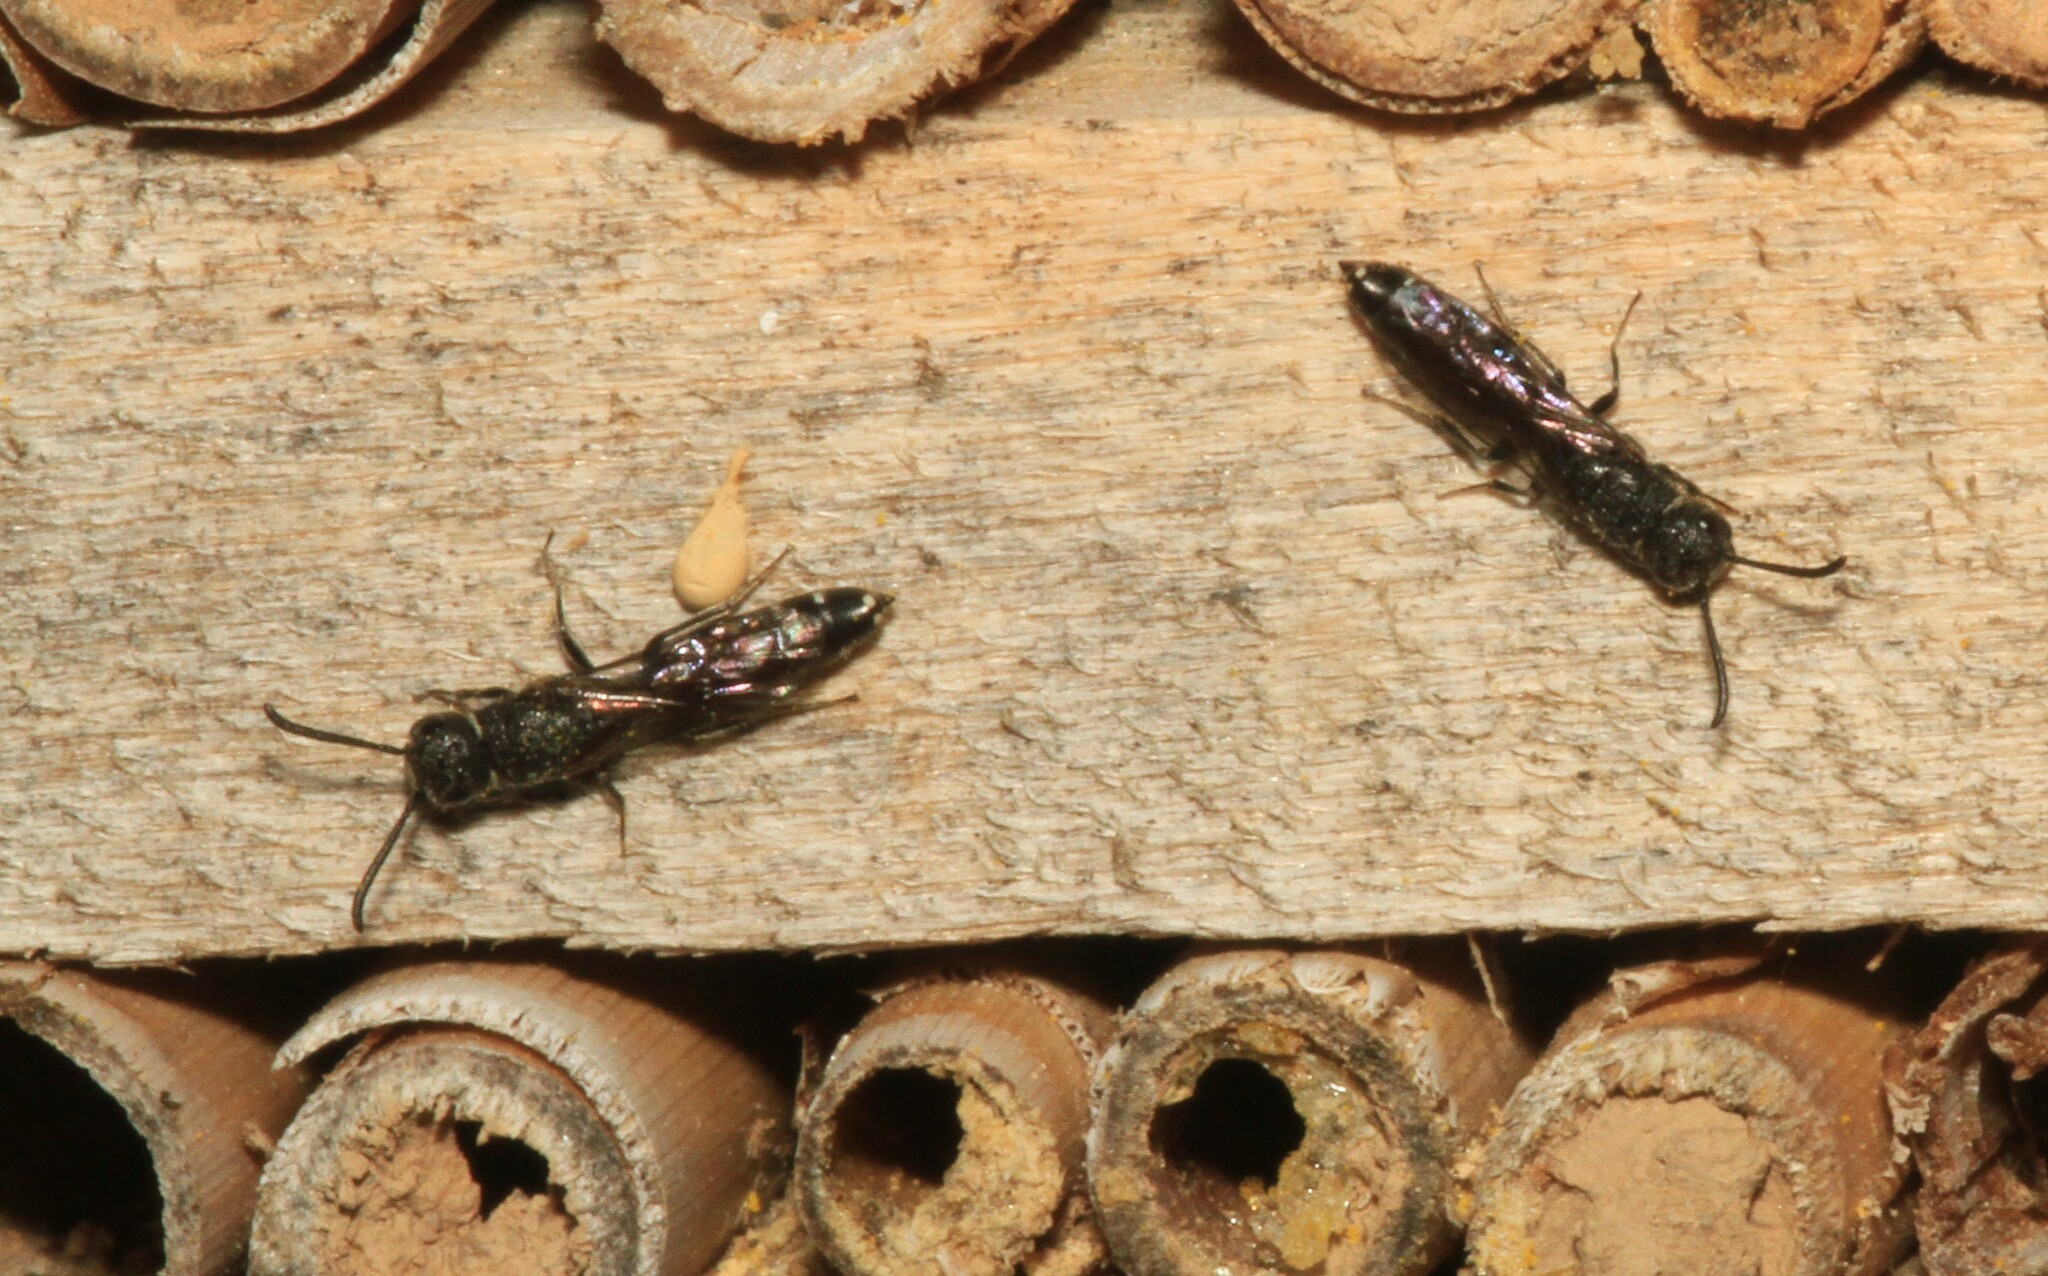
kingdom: Animalia
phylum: Arthropoda
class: Insecta
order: Hymenoptera
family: Sapygidae
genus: Sapygina
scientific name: Sapygina decemguttata
